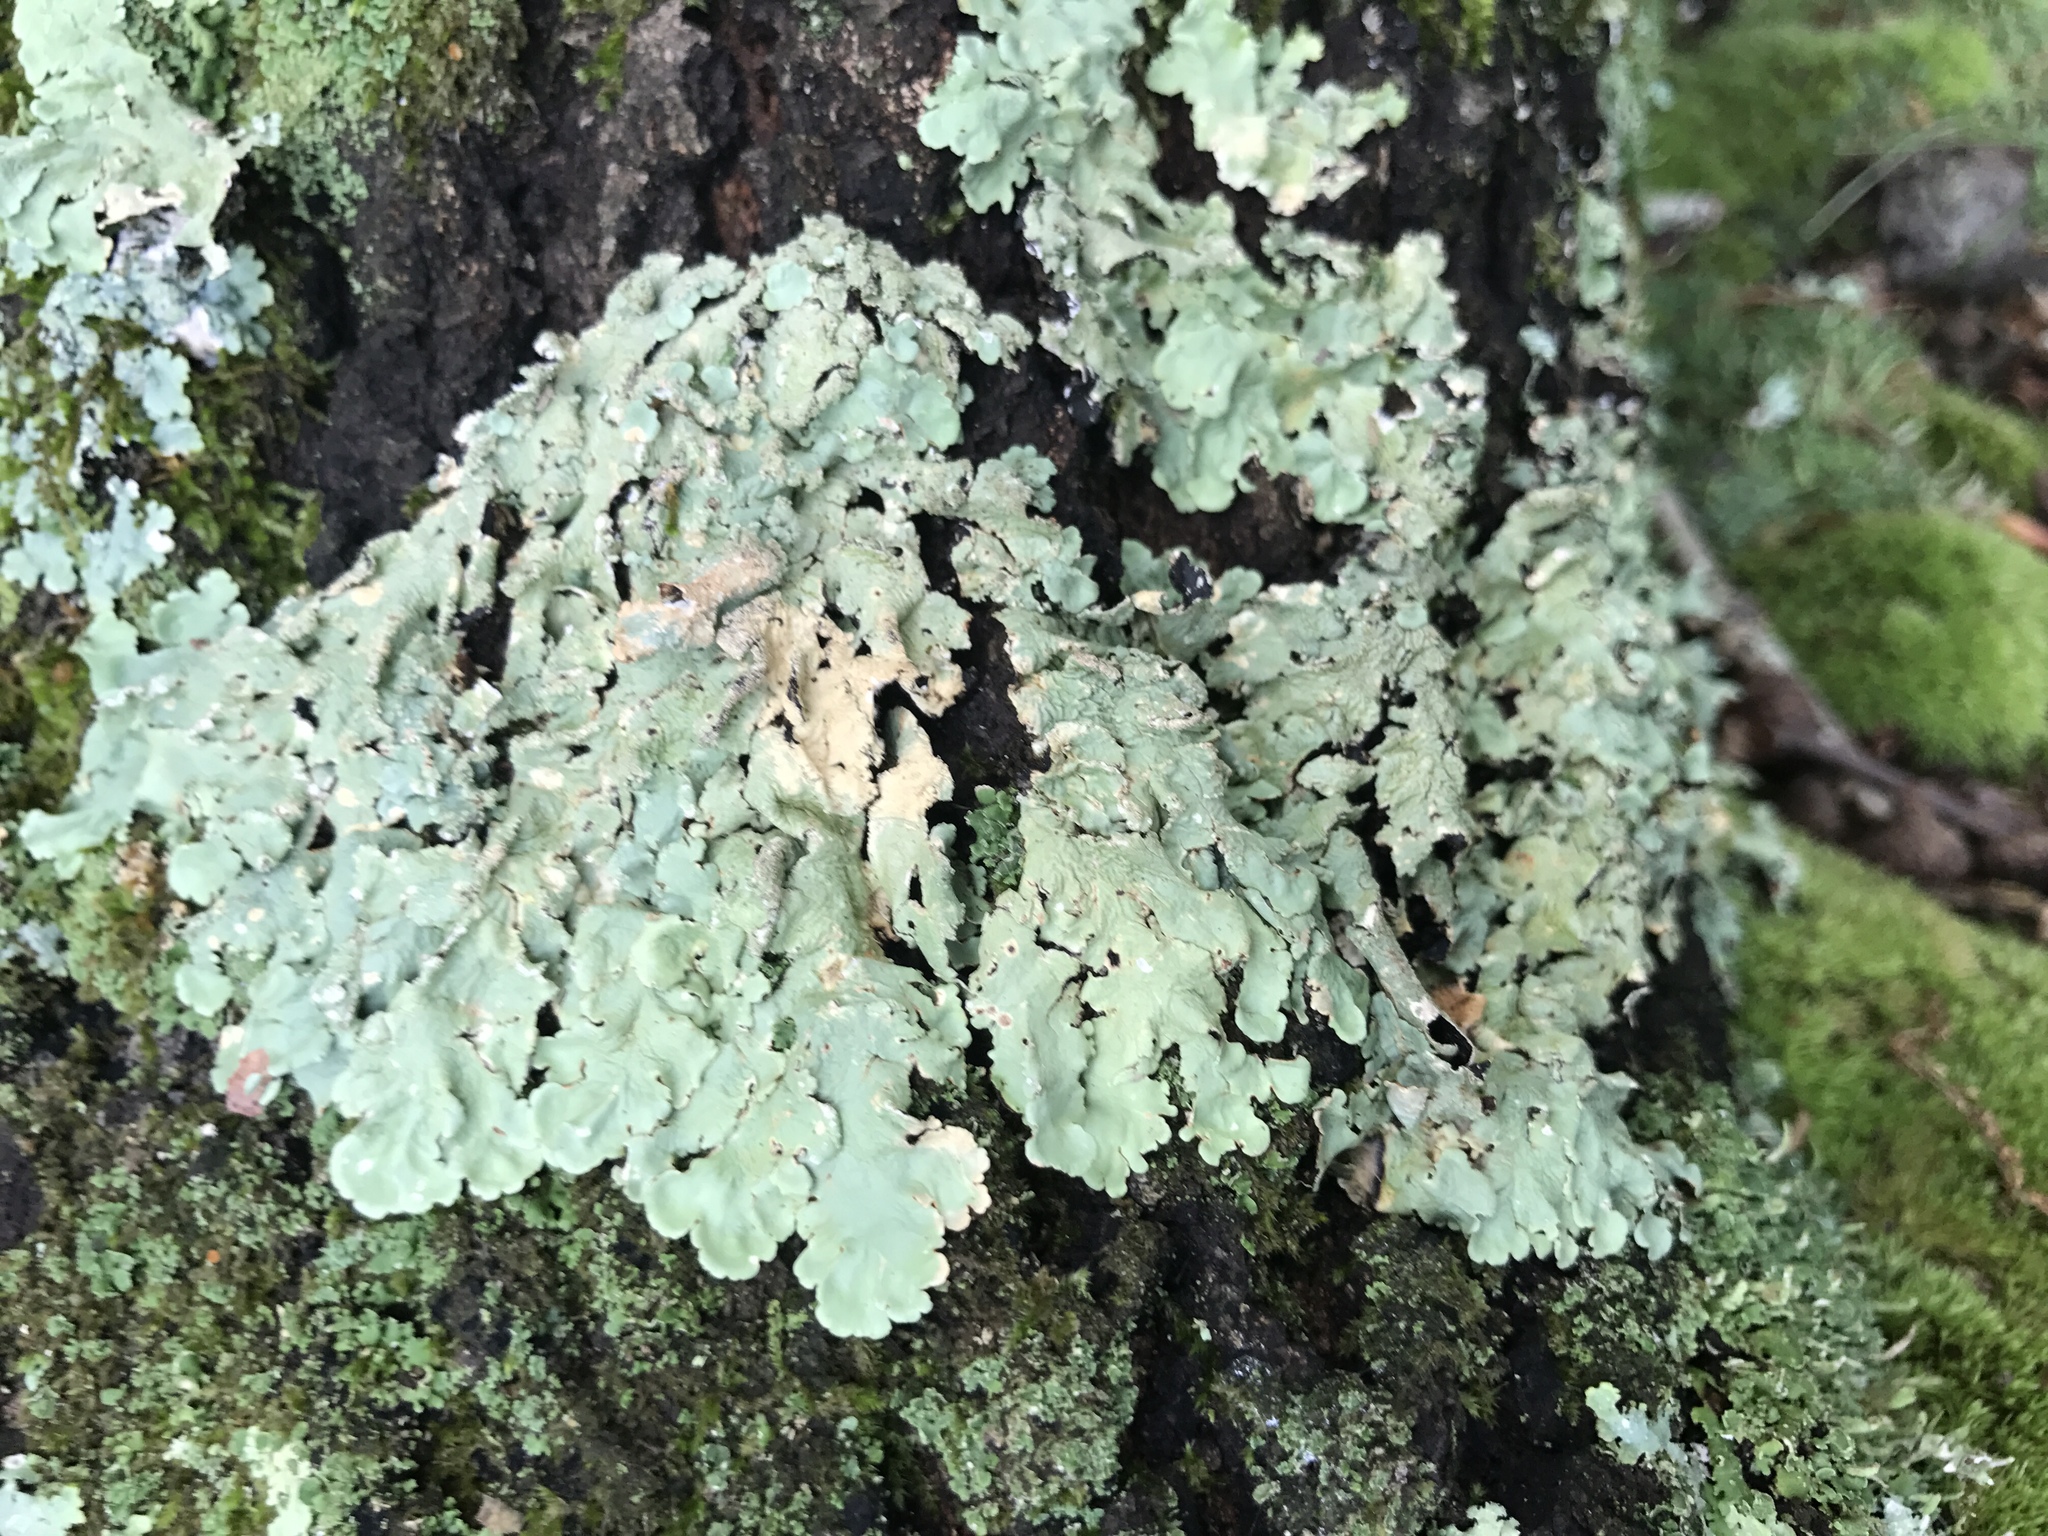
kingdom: Fungi
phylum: Ascomycota
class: Lecanoromycetes
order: Lecanorales
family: Parmeliaceae
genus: Flavoparmelia
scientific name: Flavoparmelia caperata
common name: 40-mile per hour lichen
